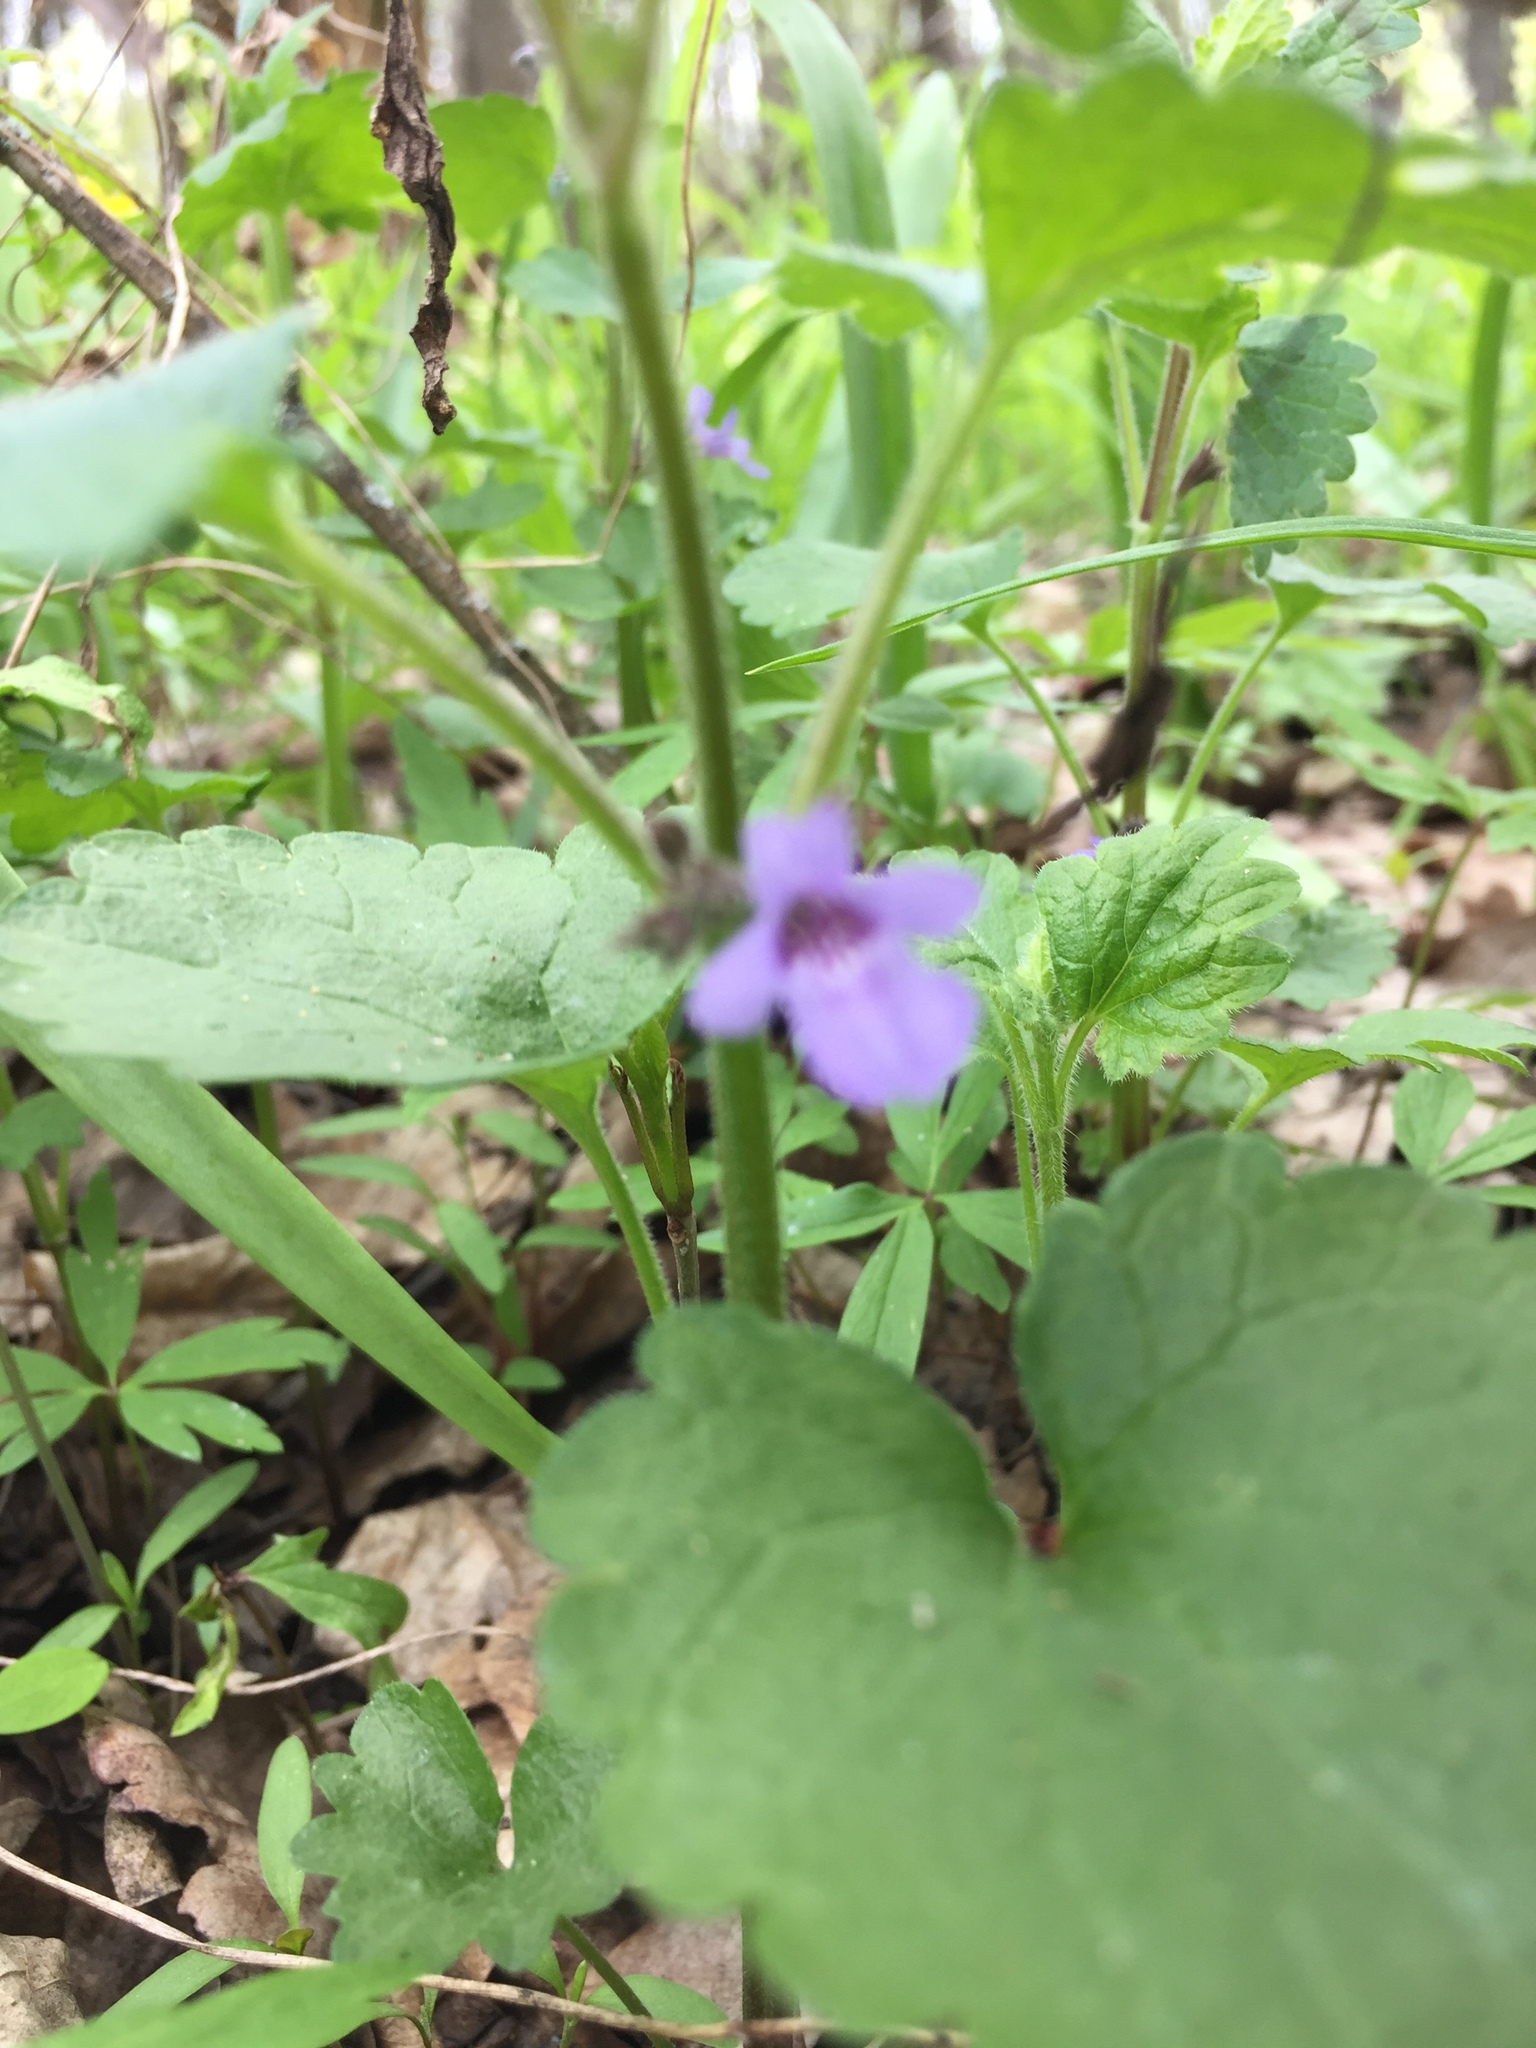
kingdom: Plantae
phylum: Tracheophyta
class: Magnoliopsida
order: Lamiales
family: Lamiaceae
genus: Glechoma
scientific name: Glechoma hederacea
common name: Ground ivy
